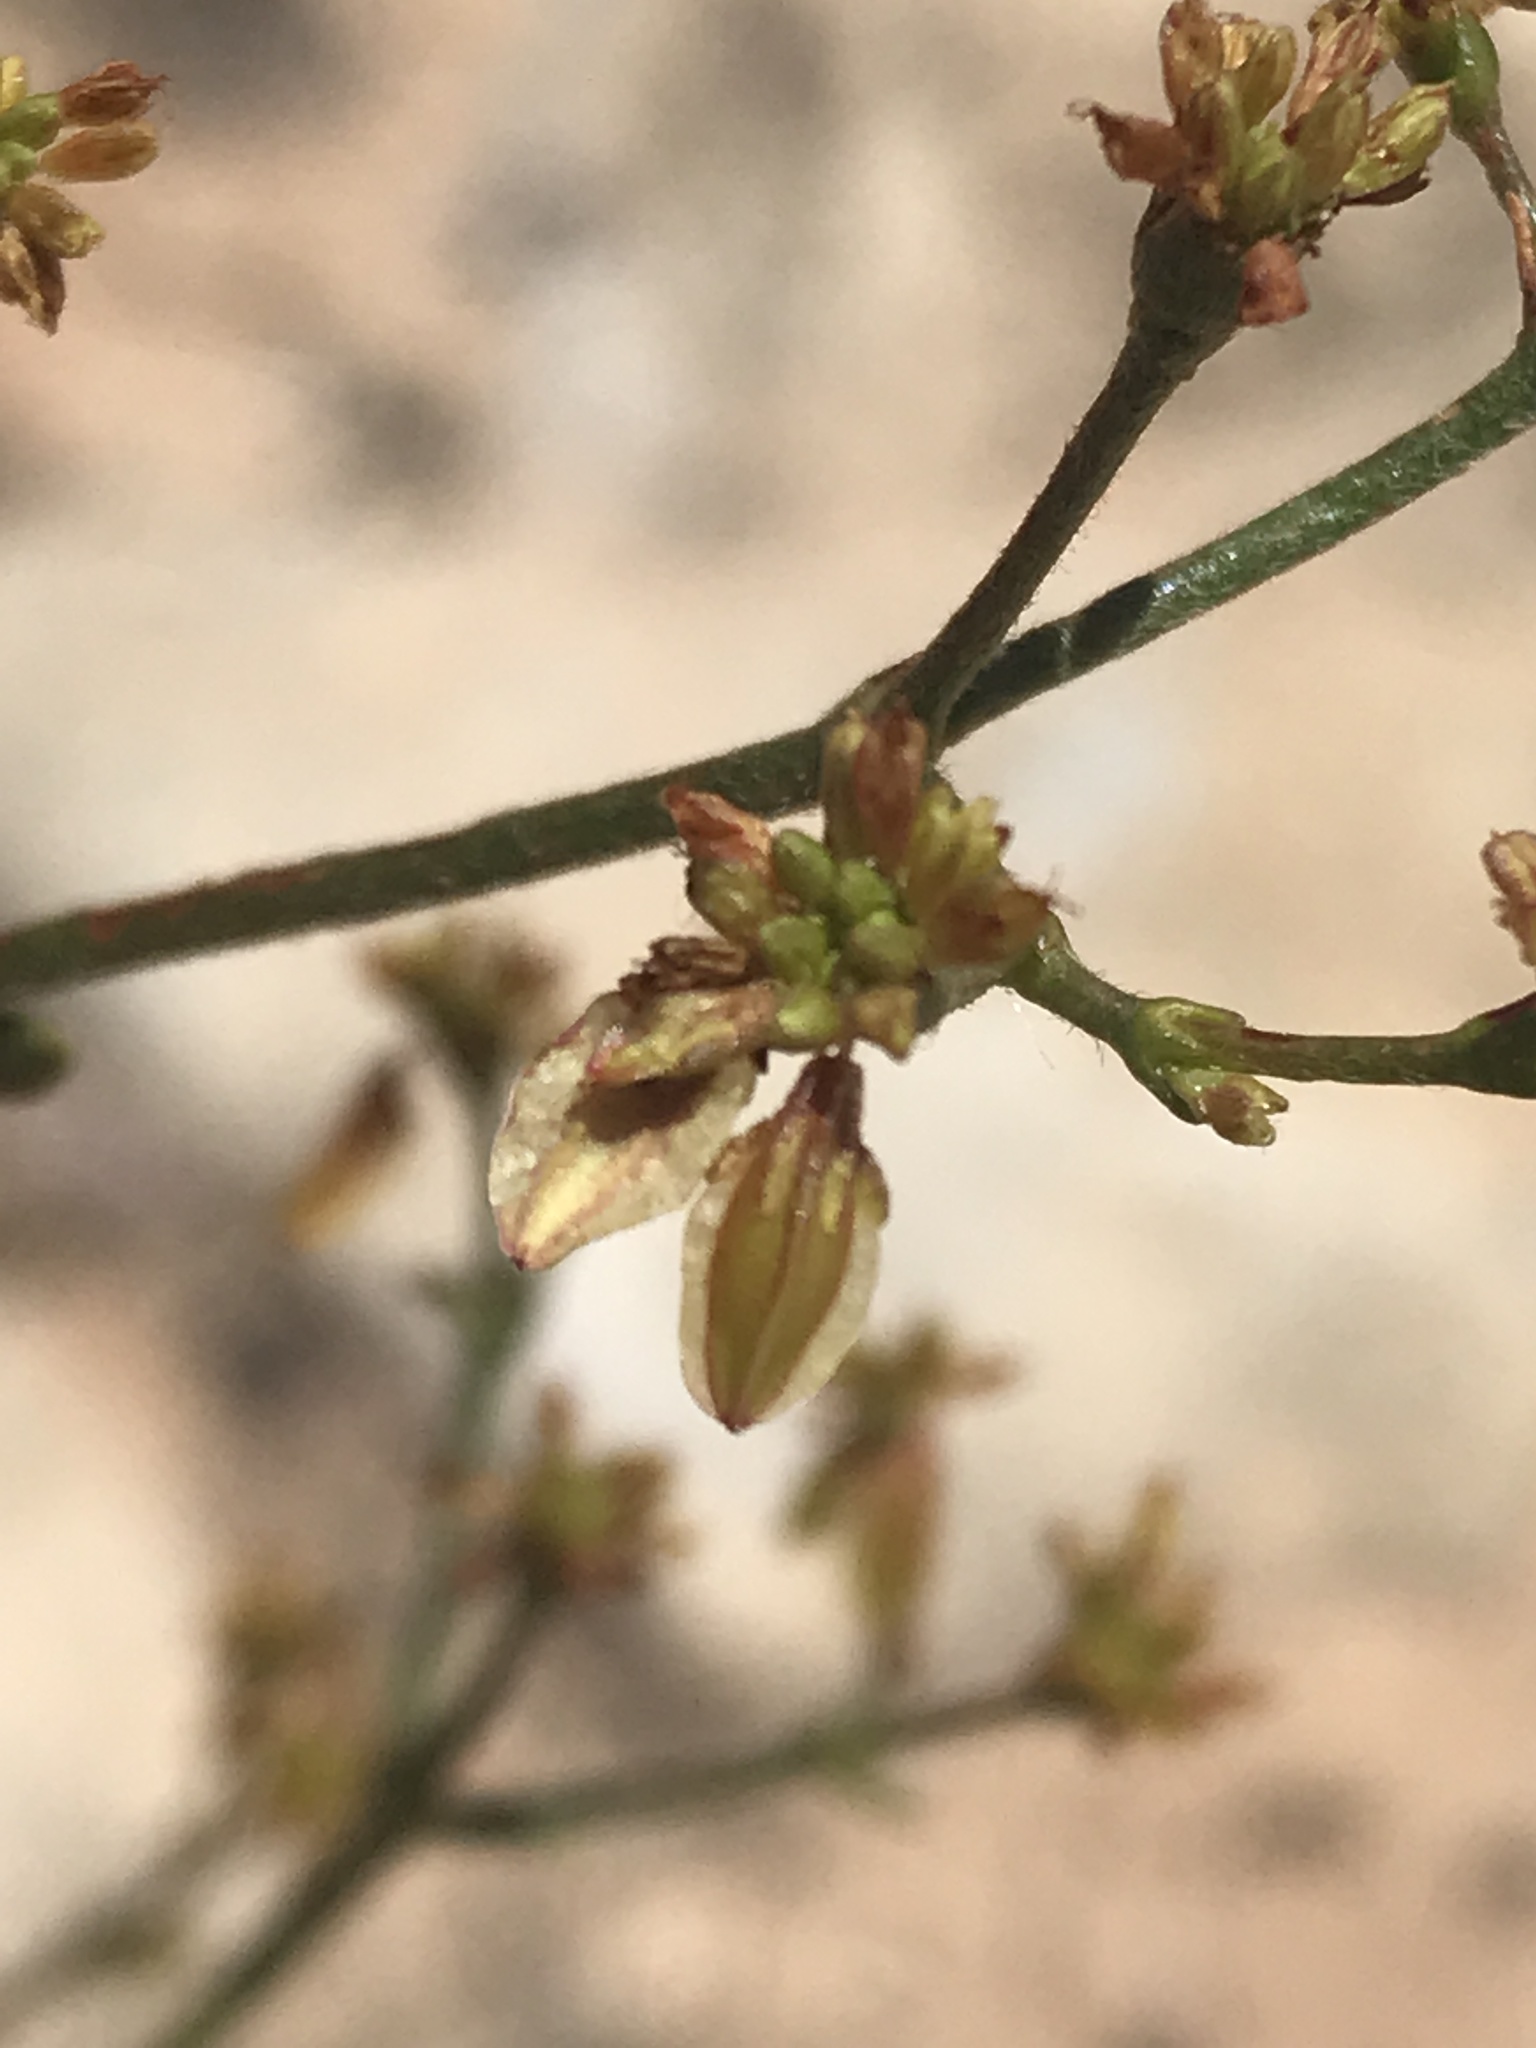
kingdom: Plantae
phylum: Tracheophyta
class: Magnoliopsida
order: Caryophyllales
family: Polygonaceae
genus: Eriogonum
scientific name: Eriogonum alatum
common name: Winged eriogonum
